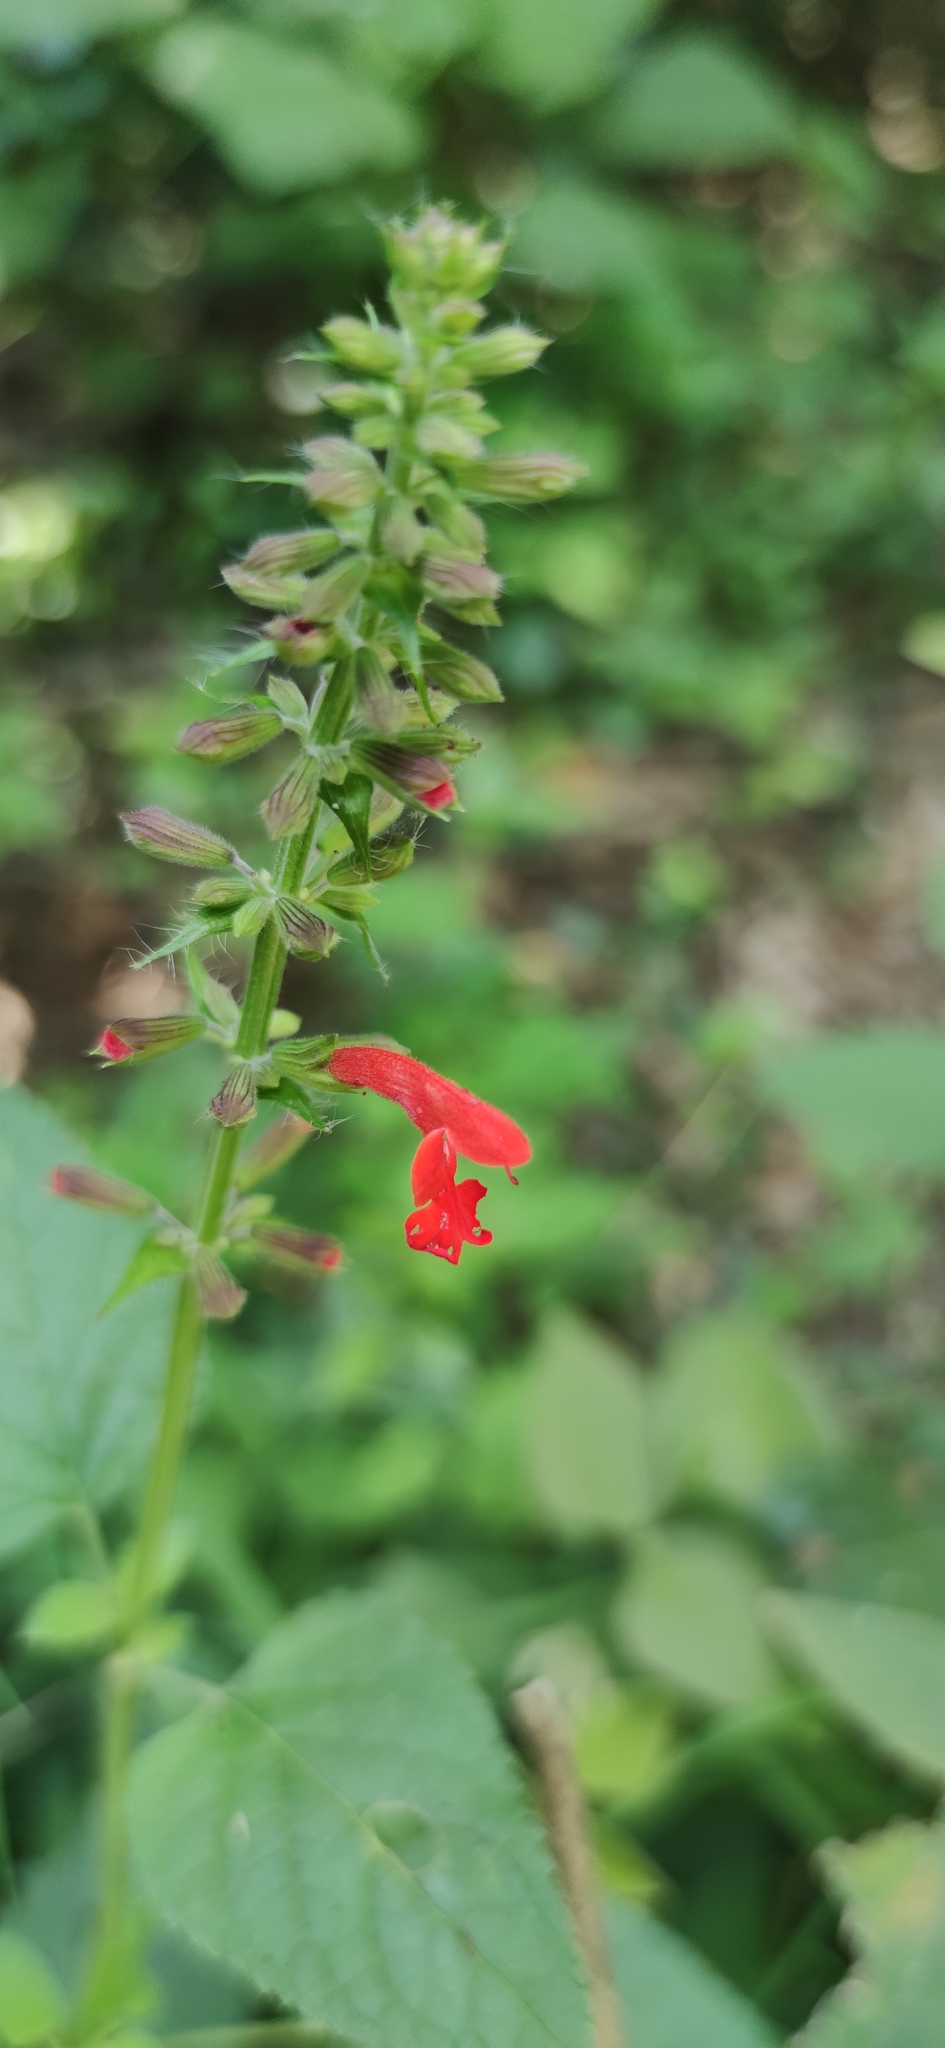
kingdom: Plantae
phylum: Tracheophyta
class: Magnoliopsida
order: Lamiales
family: Lamiaceae
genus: Salvia
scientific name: Salvia coccinea
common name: Blood sage
